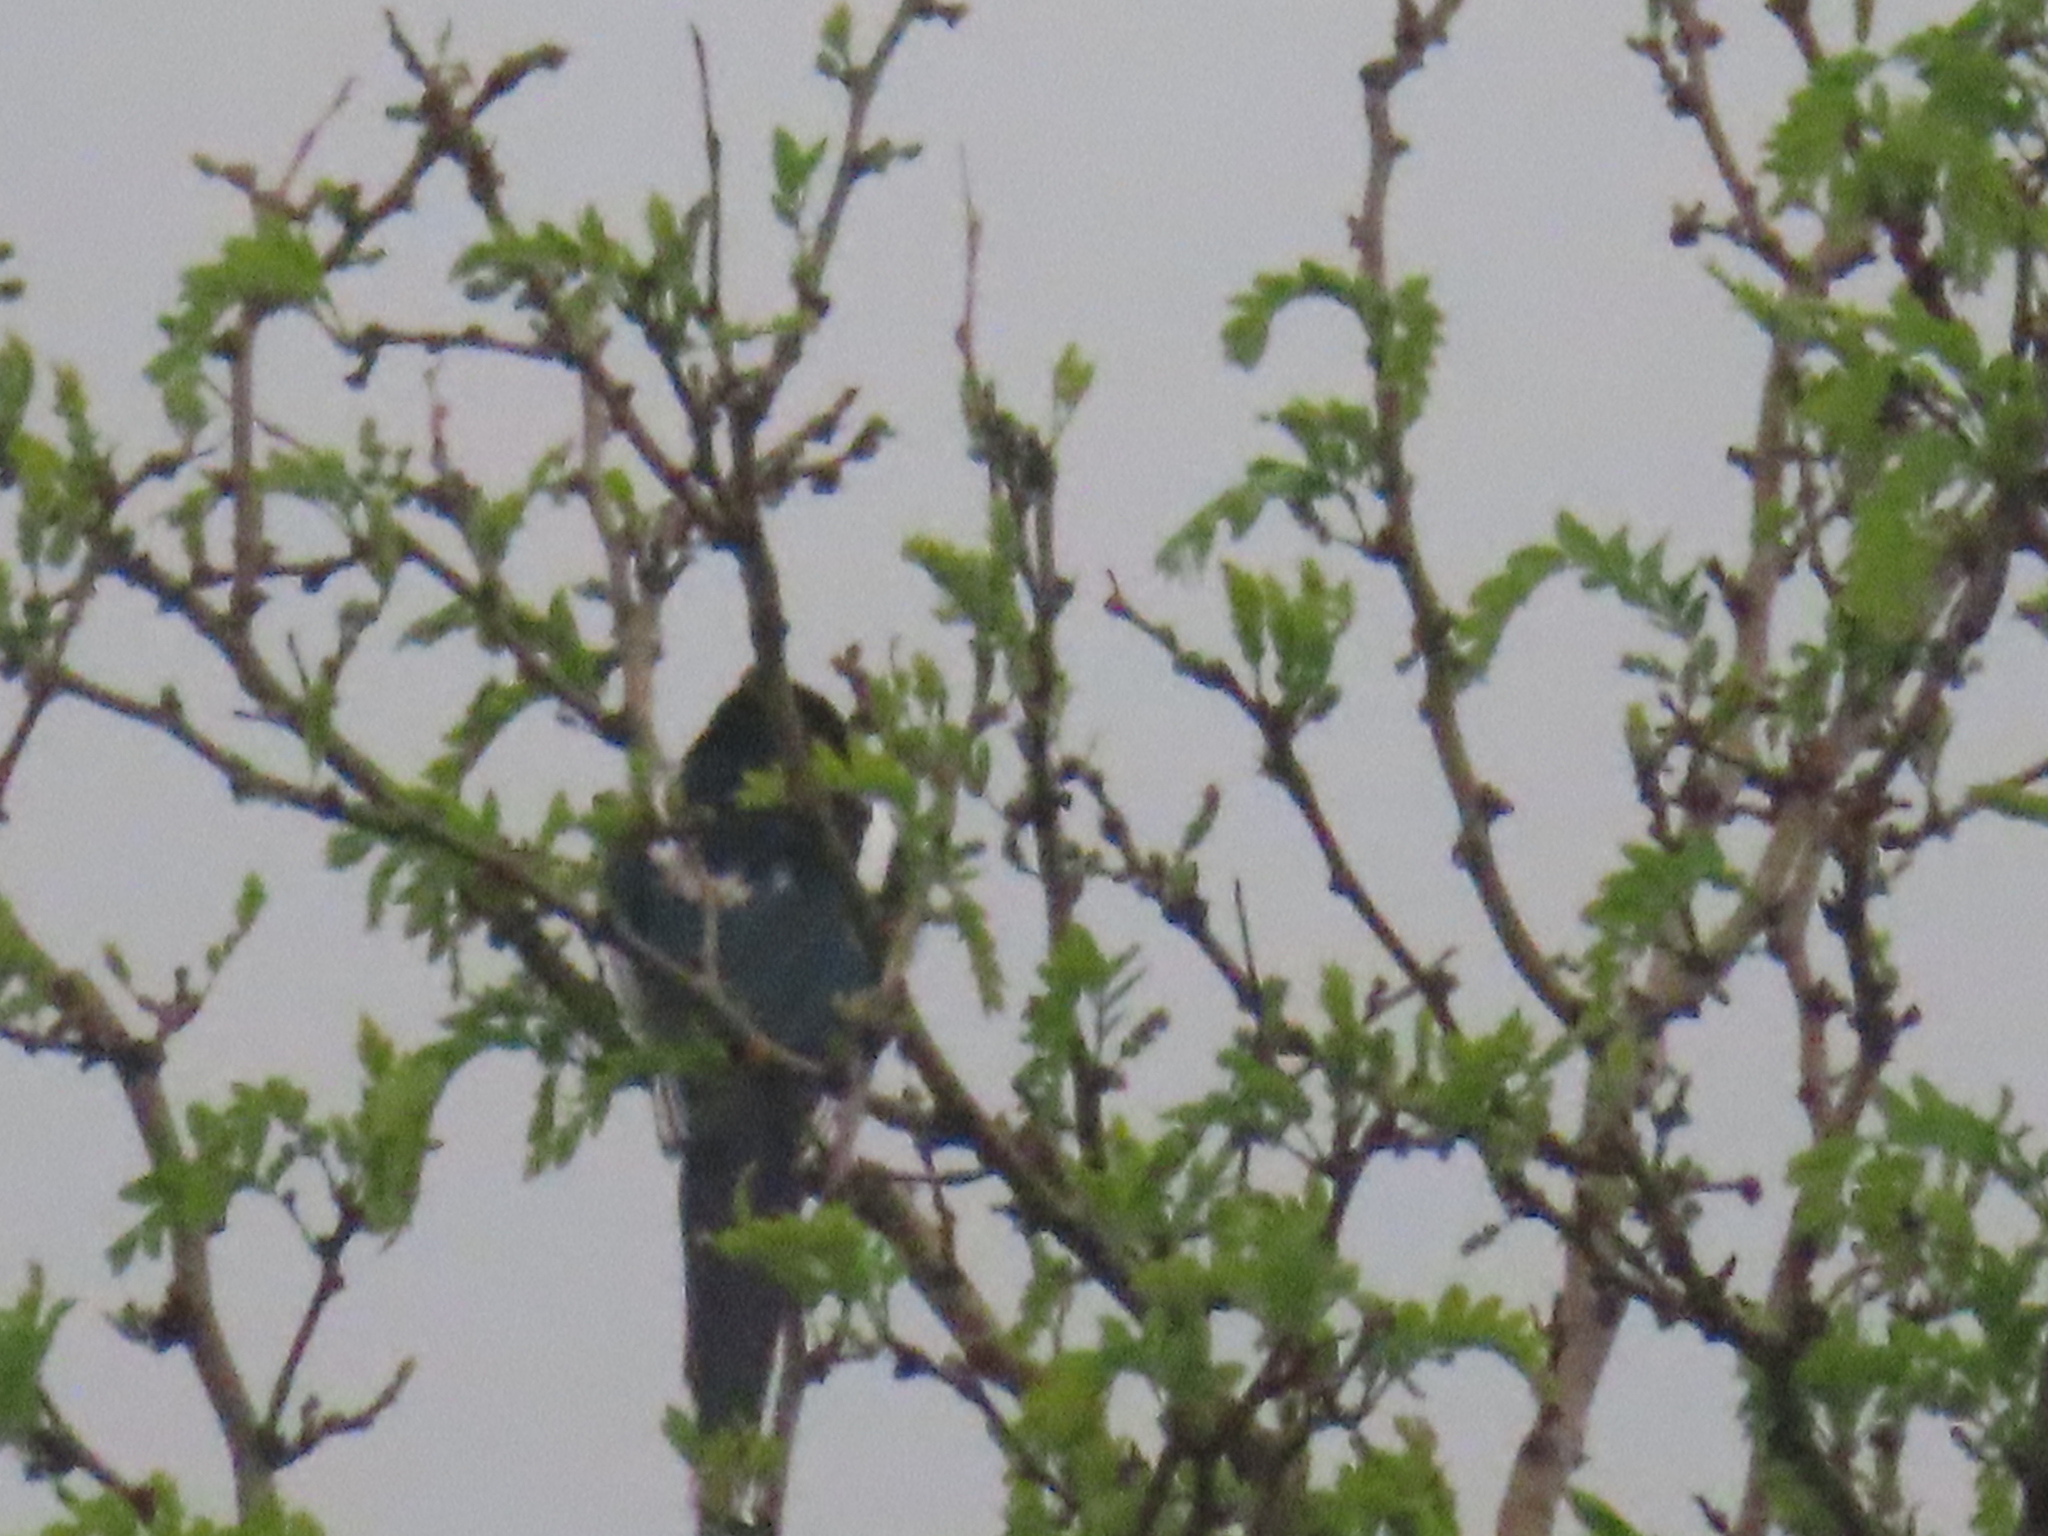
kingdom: Animalia
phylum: Chordata
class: Aves
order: Passeriformes
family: Corvidae
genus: Pica
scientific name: Pica hudsonia
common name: Black-billed magpie
